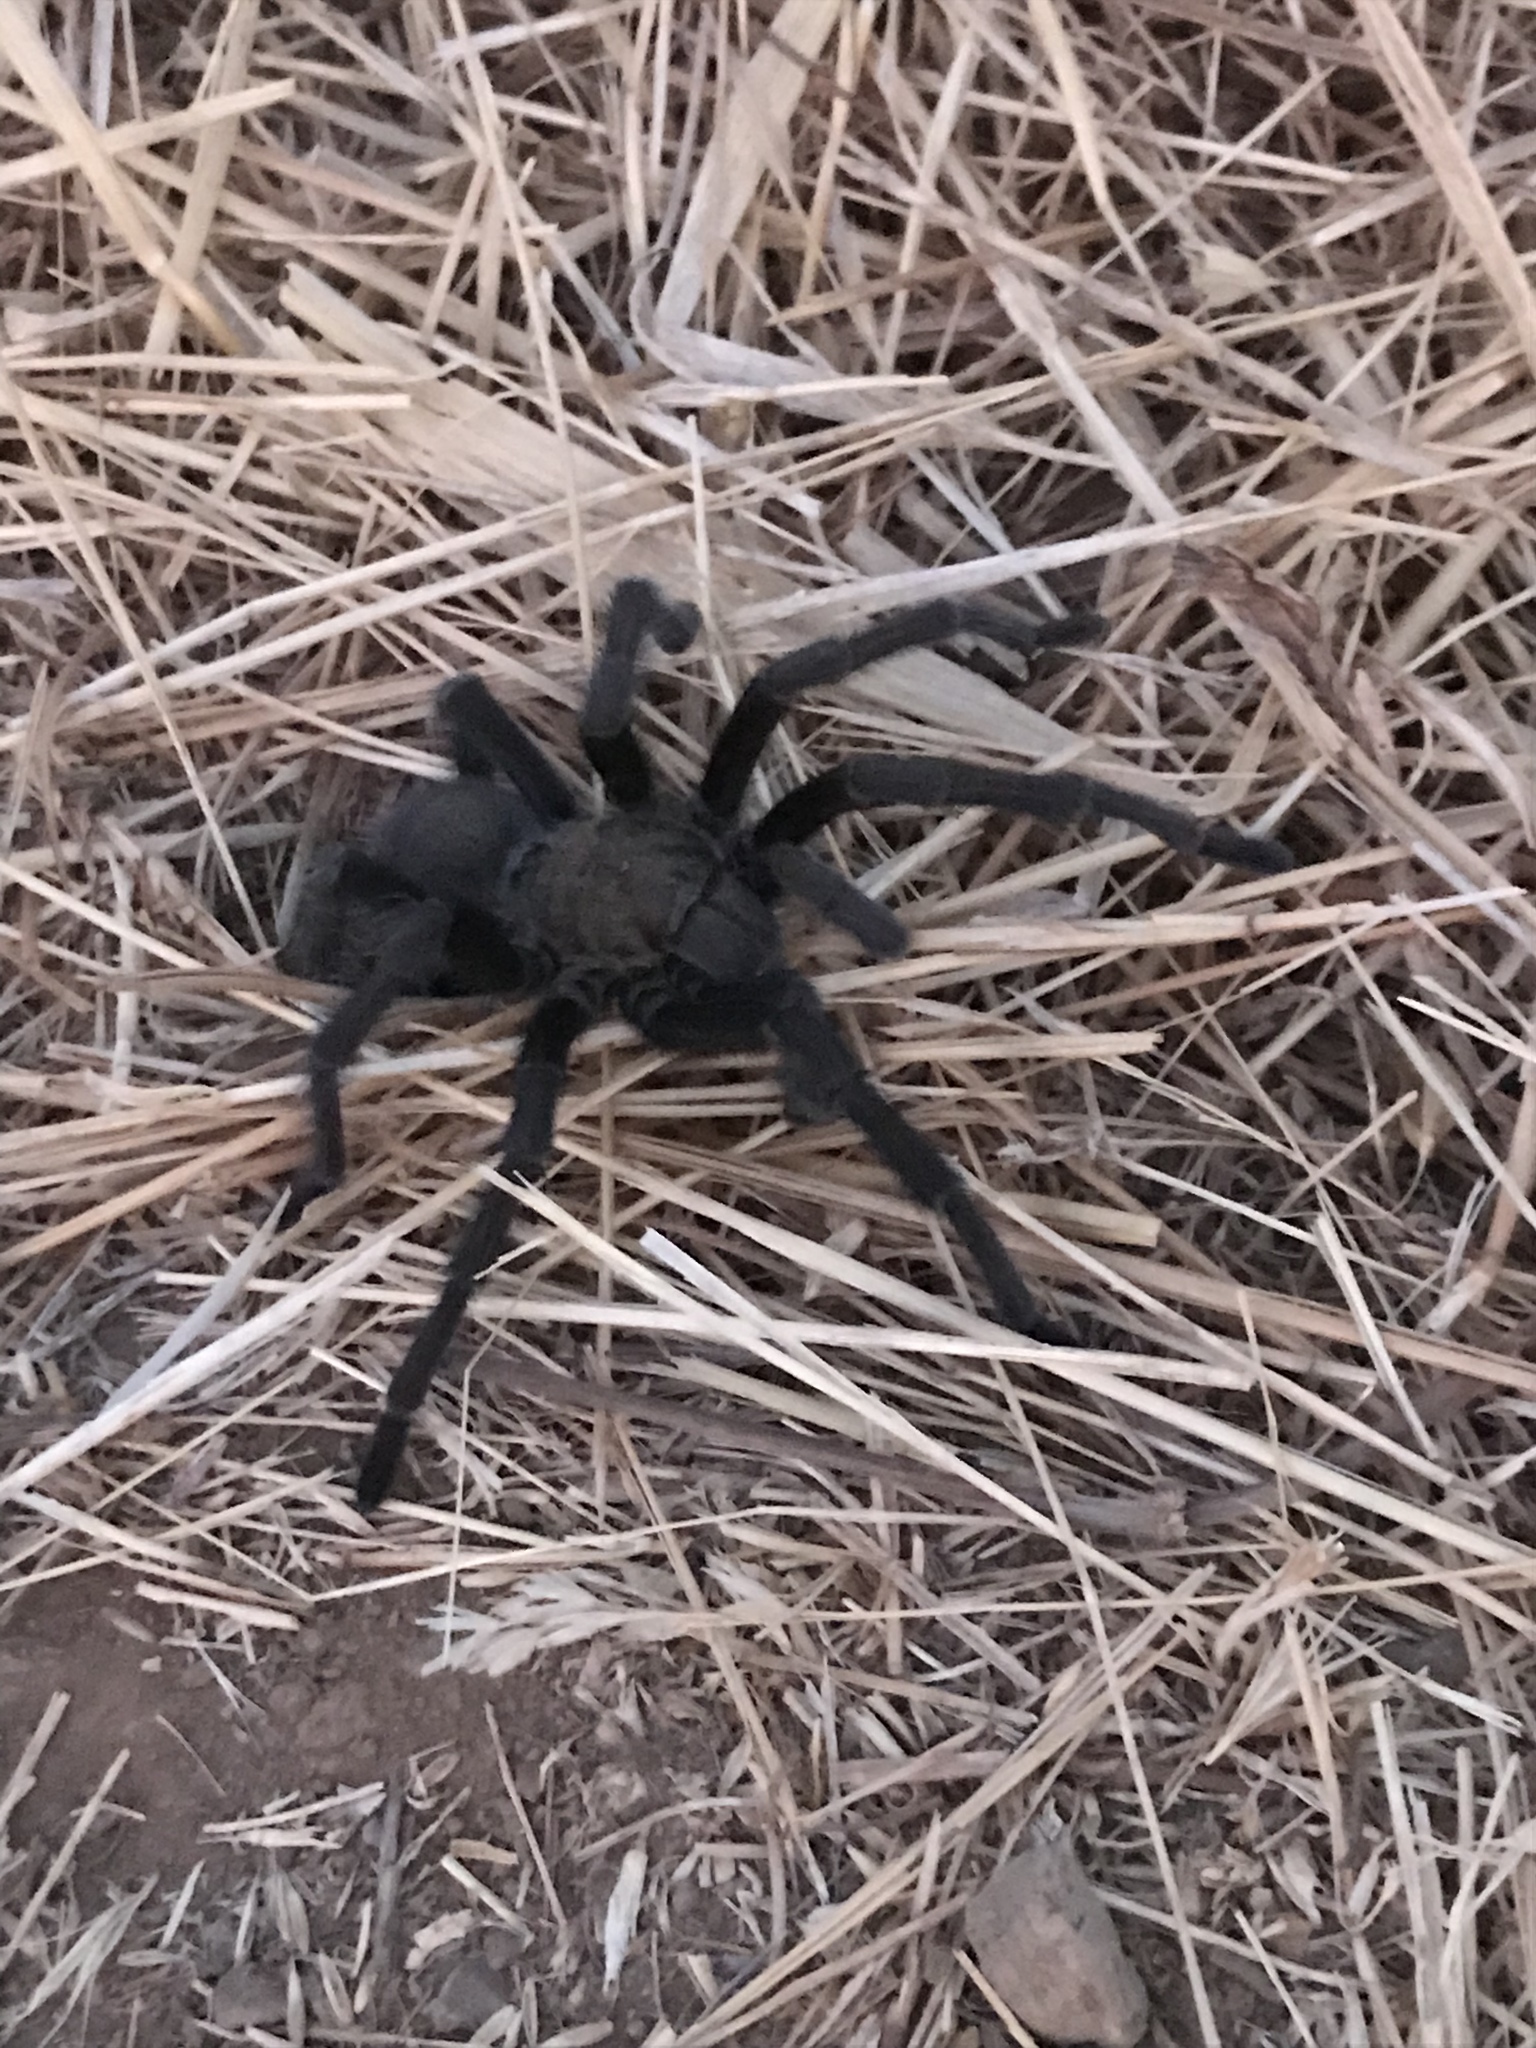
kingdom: Animalia
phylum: Arthropoda
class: Arachnida
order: Araneae
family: Theraphosidae
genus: Aphonopelma
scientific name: Aphonopelma iodius
